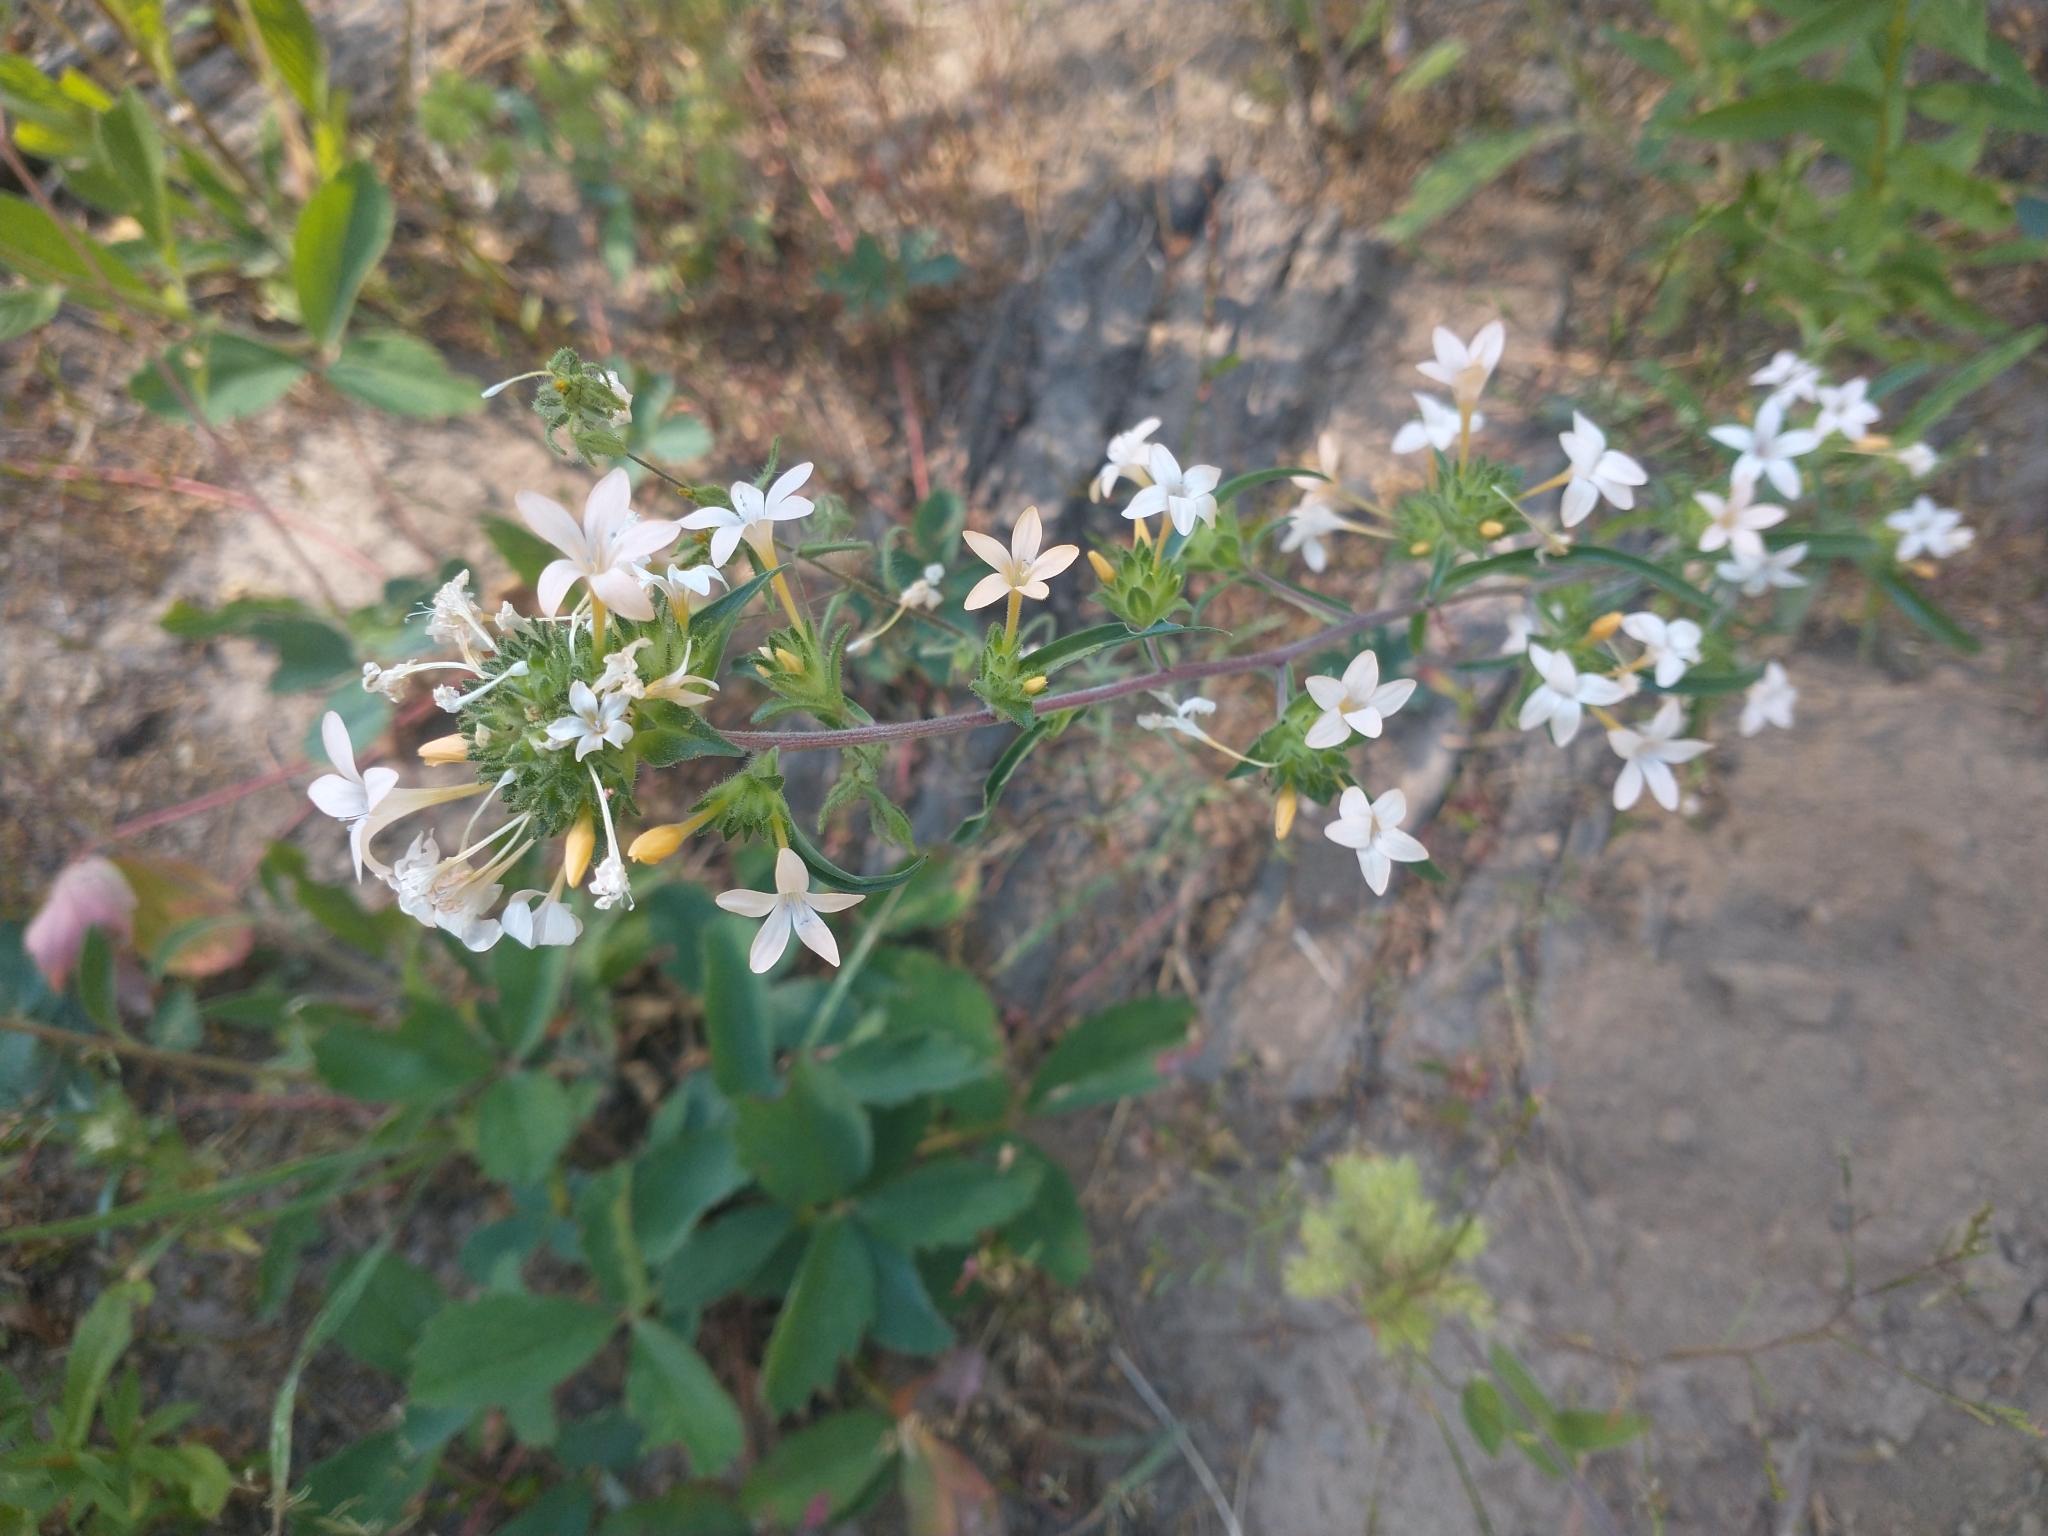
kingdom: Plantae
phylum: Tracheophyta
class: Magnoliopsida
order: Ericales
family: Polemoniaceae
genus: Collomia
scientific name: Collomia grandiflora
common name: California strawflower
